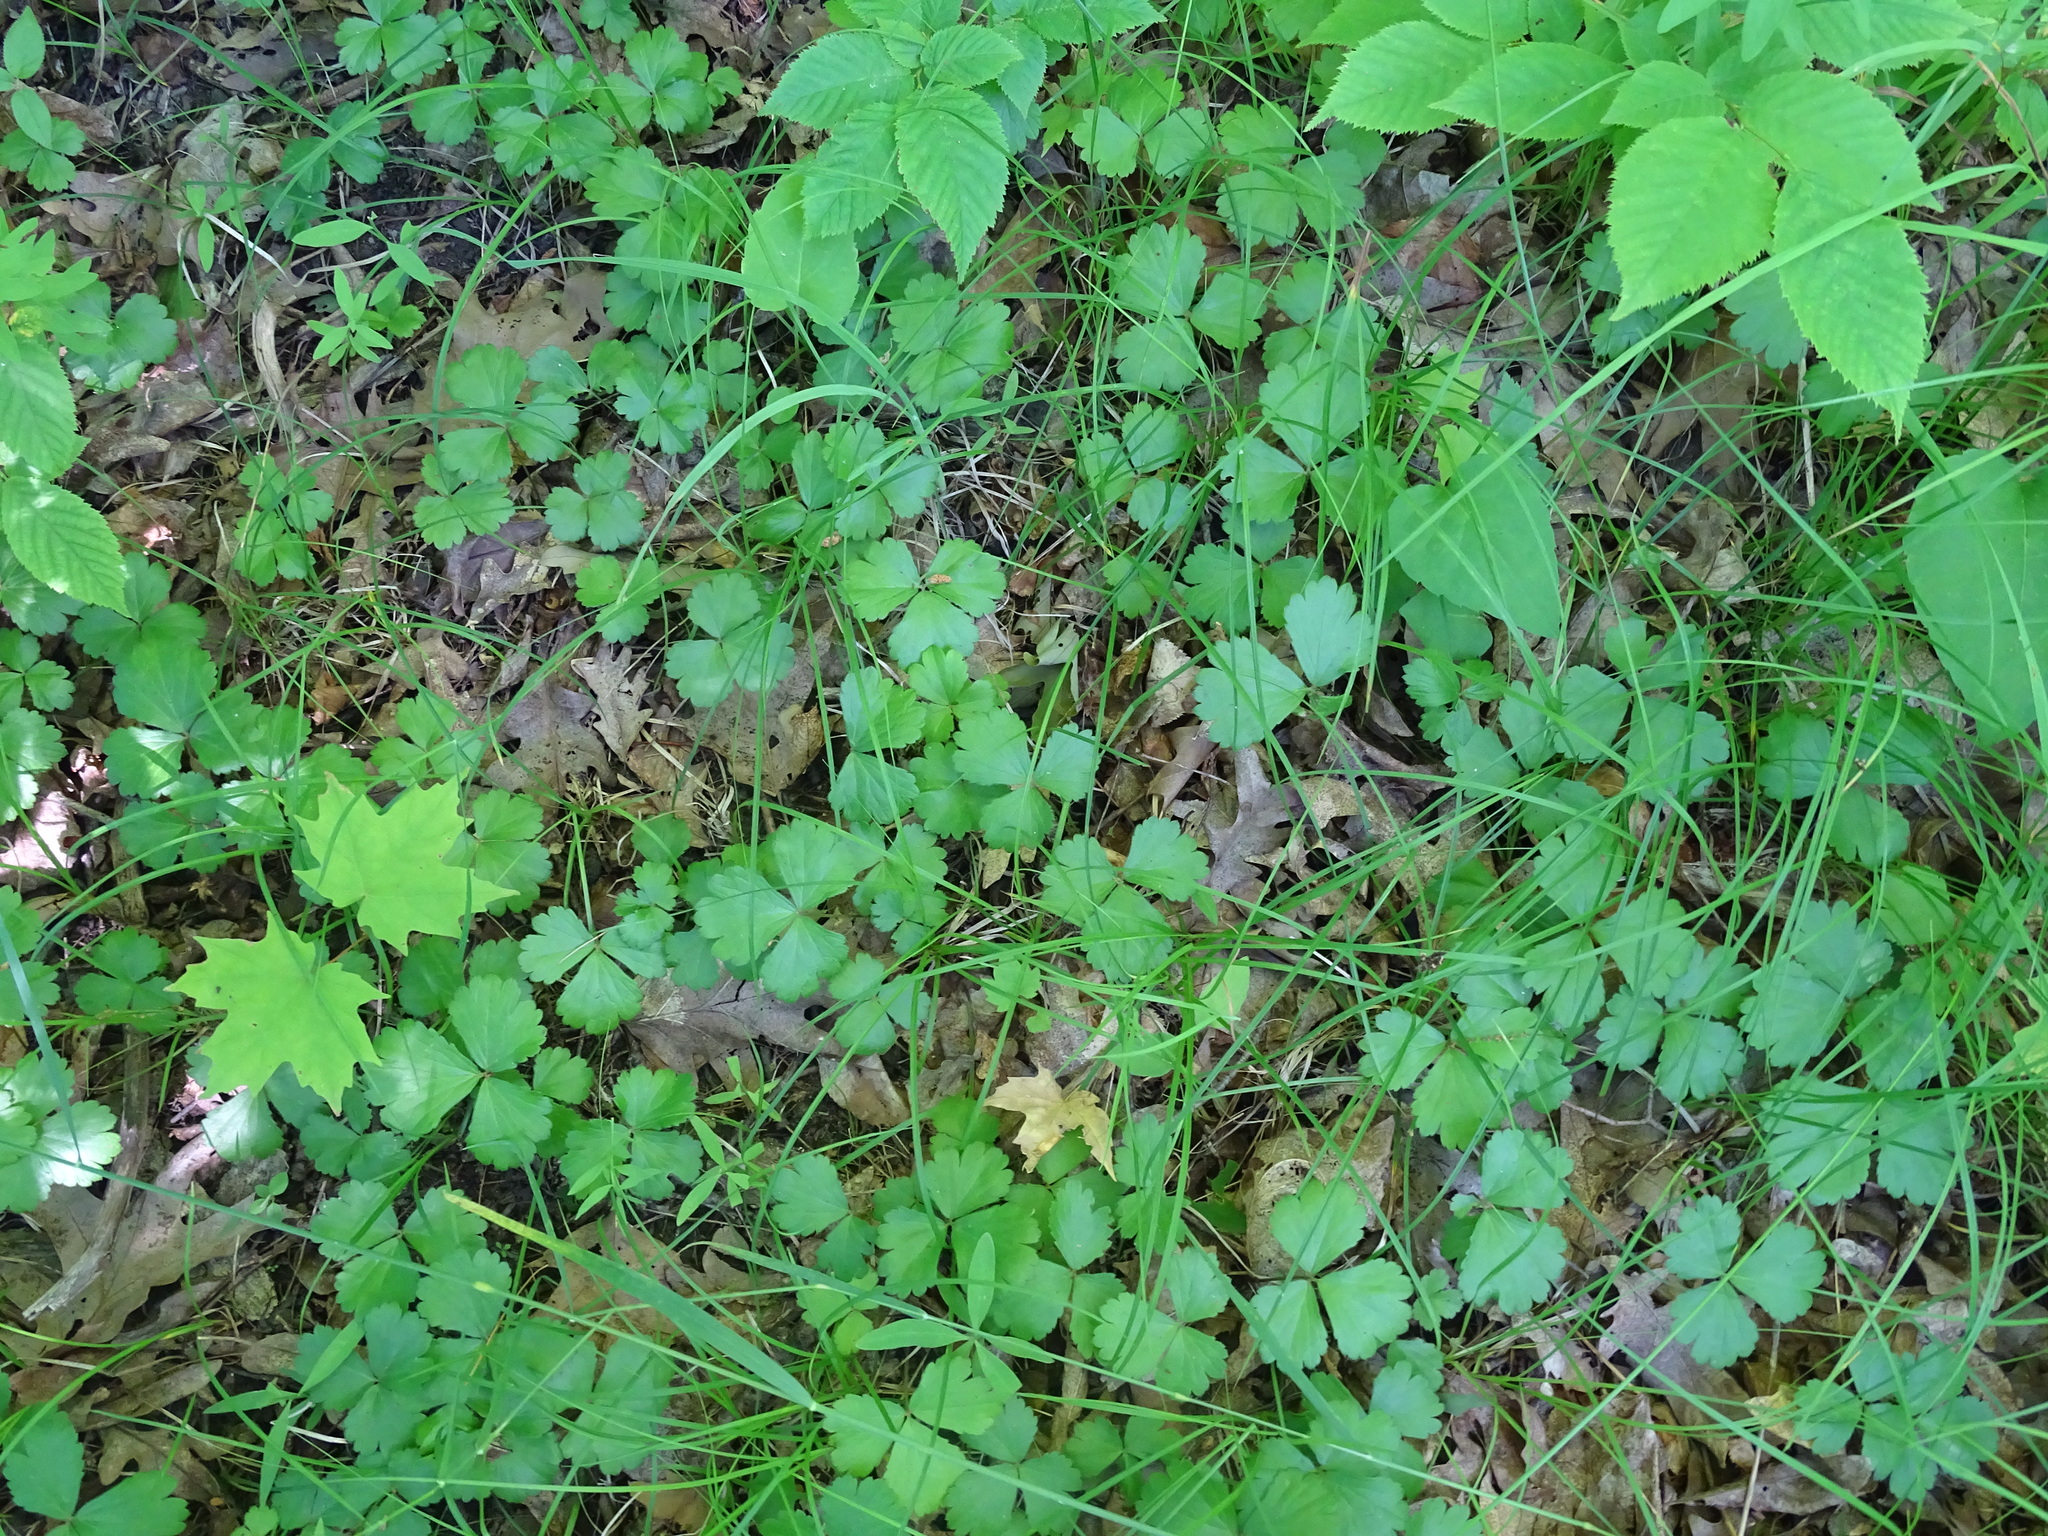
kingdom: Plantae
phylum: Tracheophyta
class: Magnoliopsida
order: Rosales
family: Rosaceae
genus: Geum
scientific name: Geum fragarioides
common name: Appalachian barren strawberry
